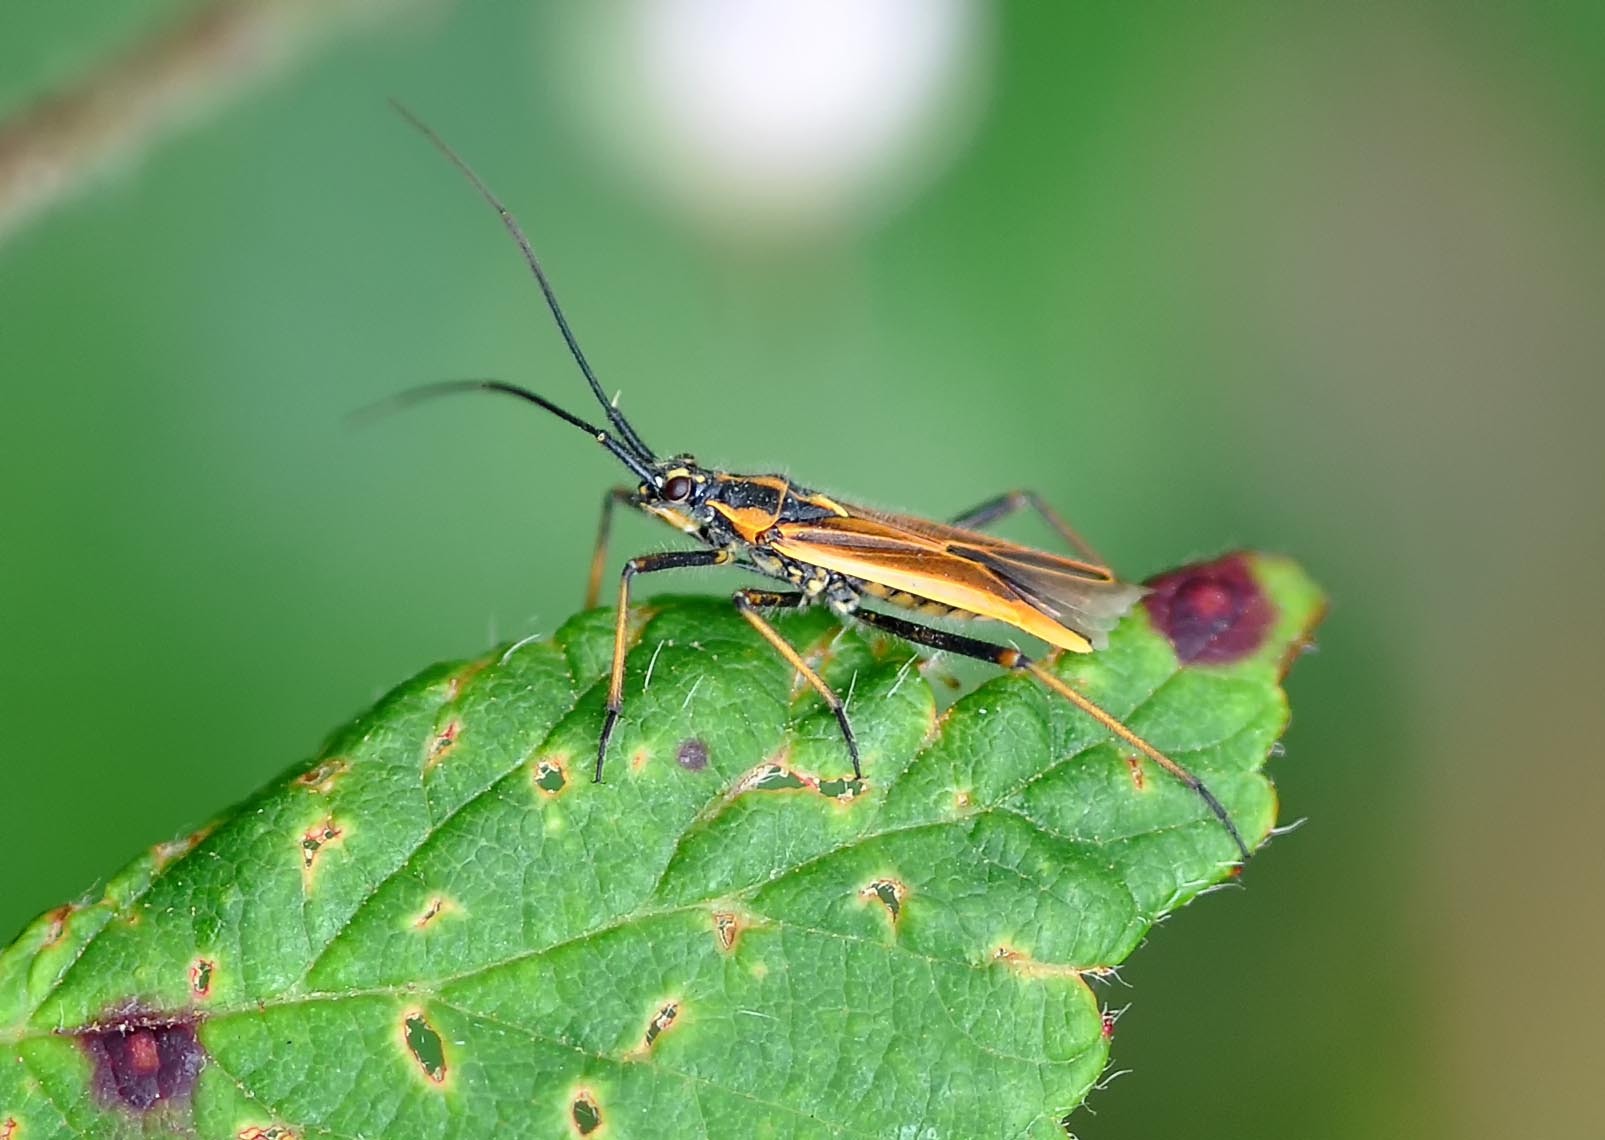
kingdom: Animalia
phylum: Arthropoda
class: Insecta
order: Hemiptera
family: Miridae
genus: Leptopterna
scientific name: Leptopterna dolabrata
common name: Meadow plant bug
